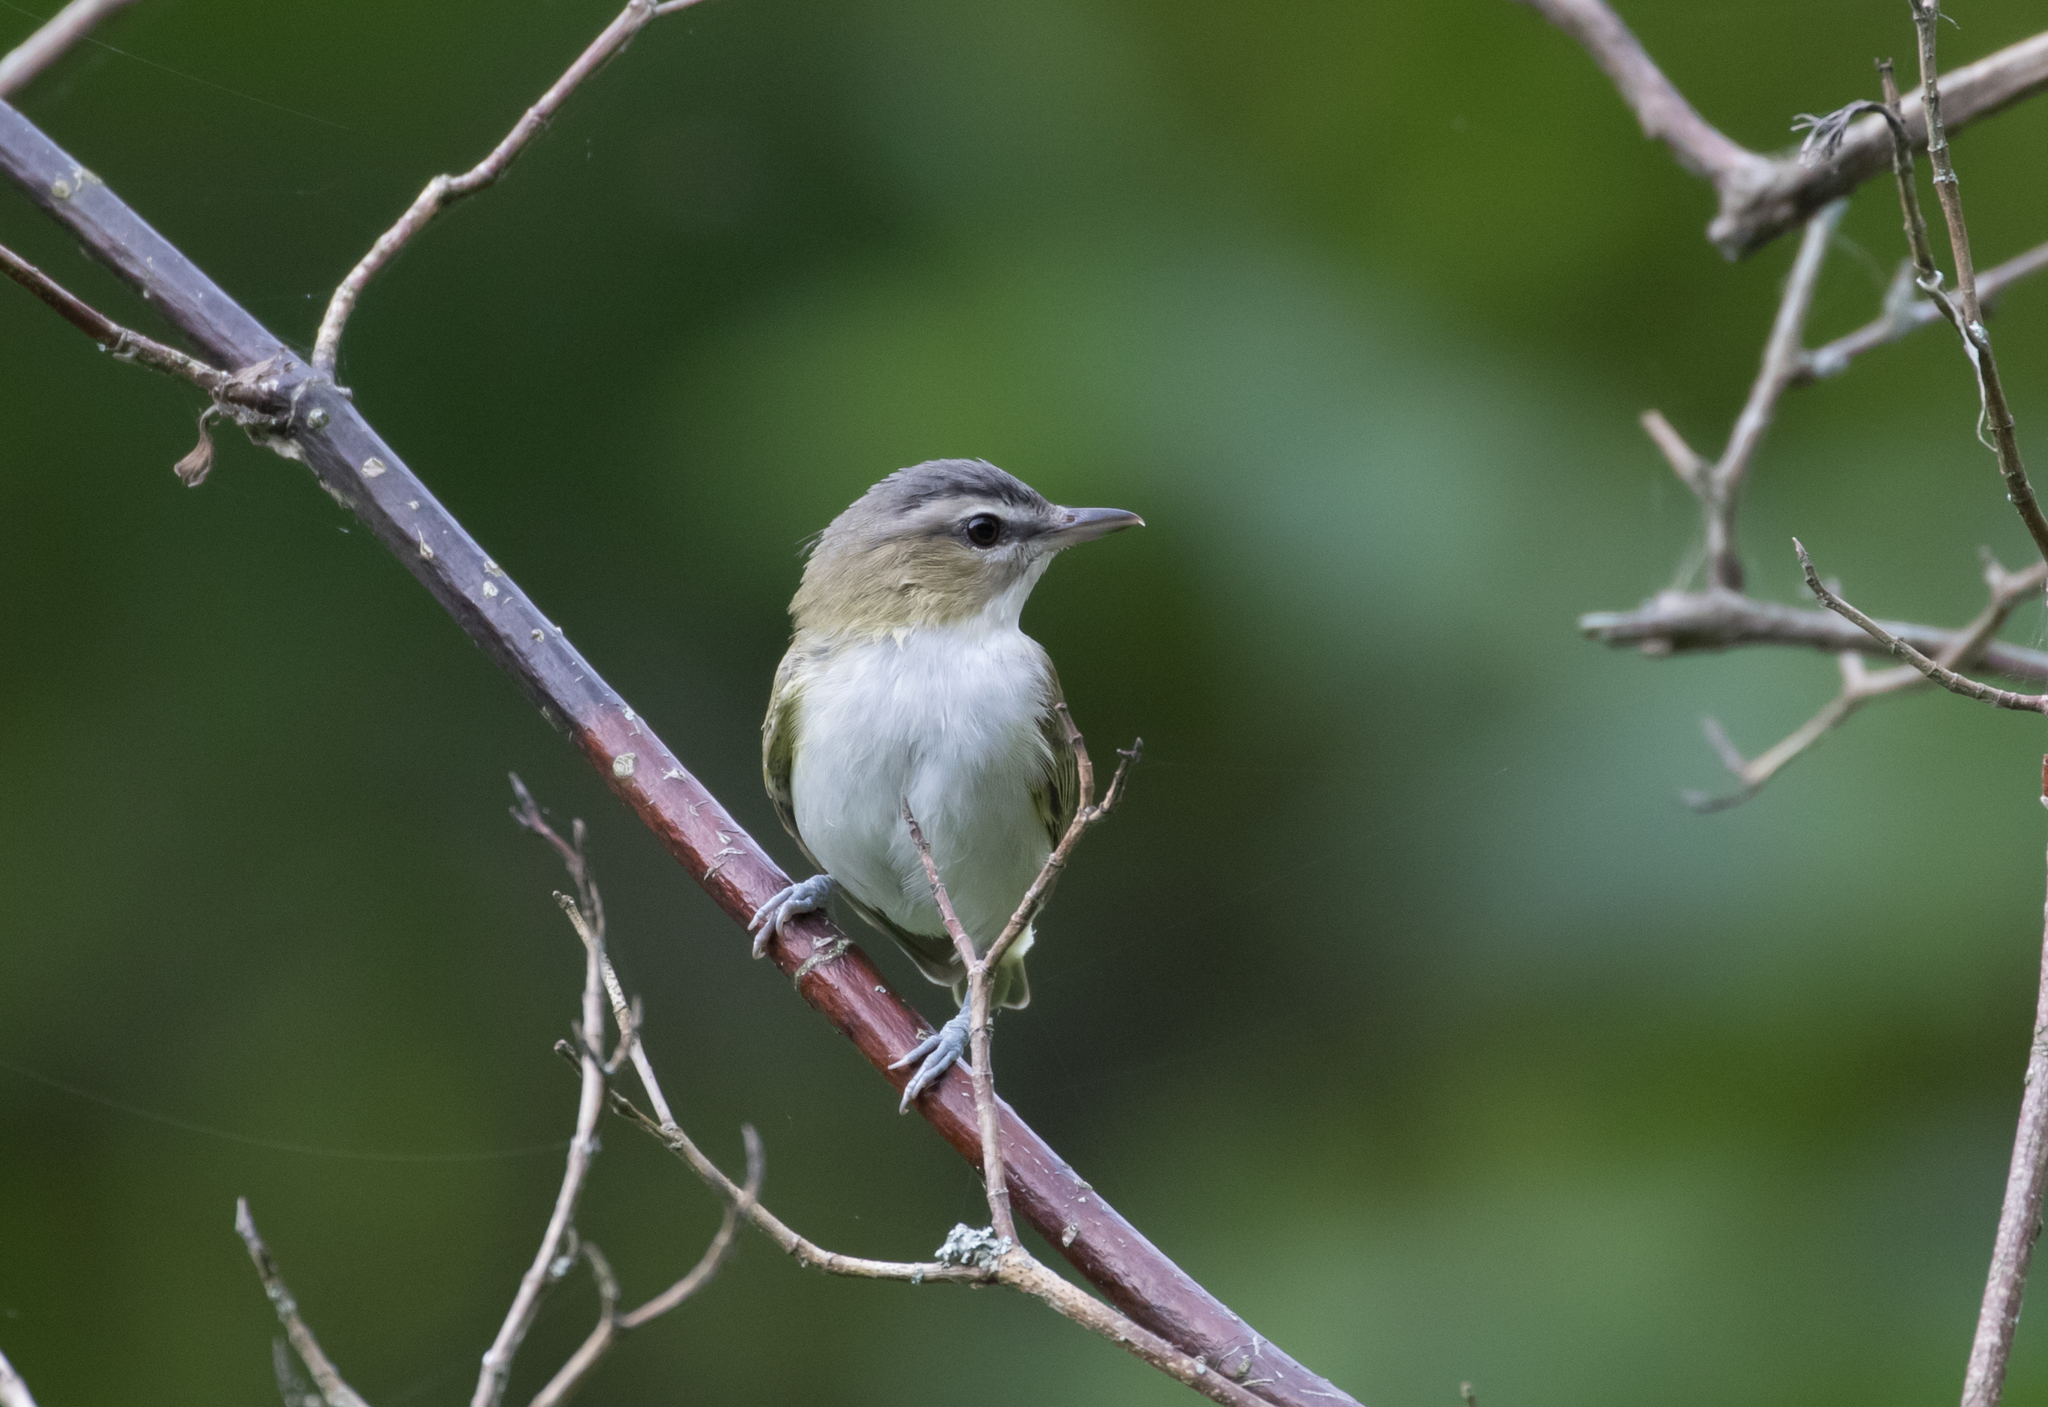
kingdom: Animalia
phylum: Chordata
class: Aves
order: Passeriformes
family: Vireonidae
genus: Vireo
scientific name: Vireo olivaceus
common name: Red-eyed vireo
